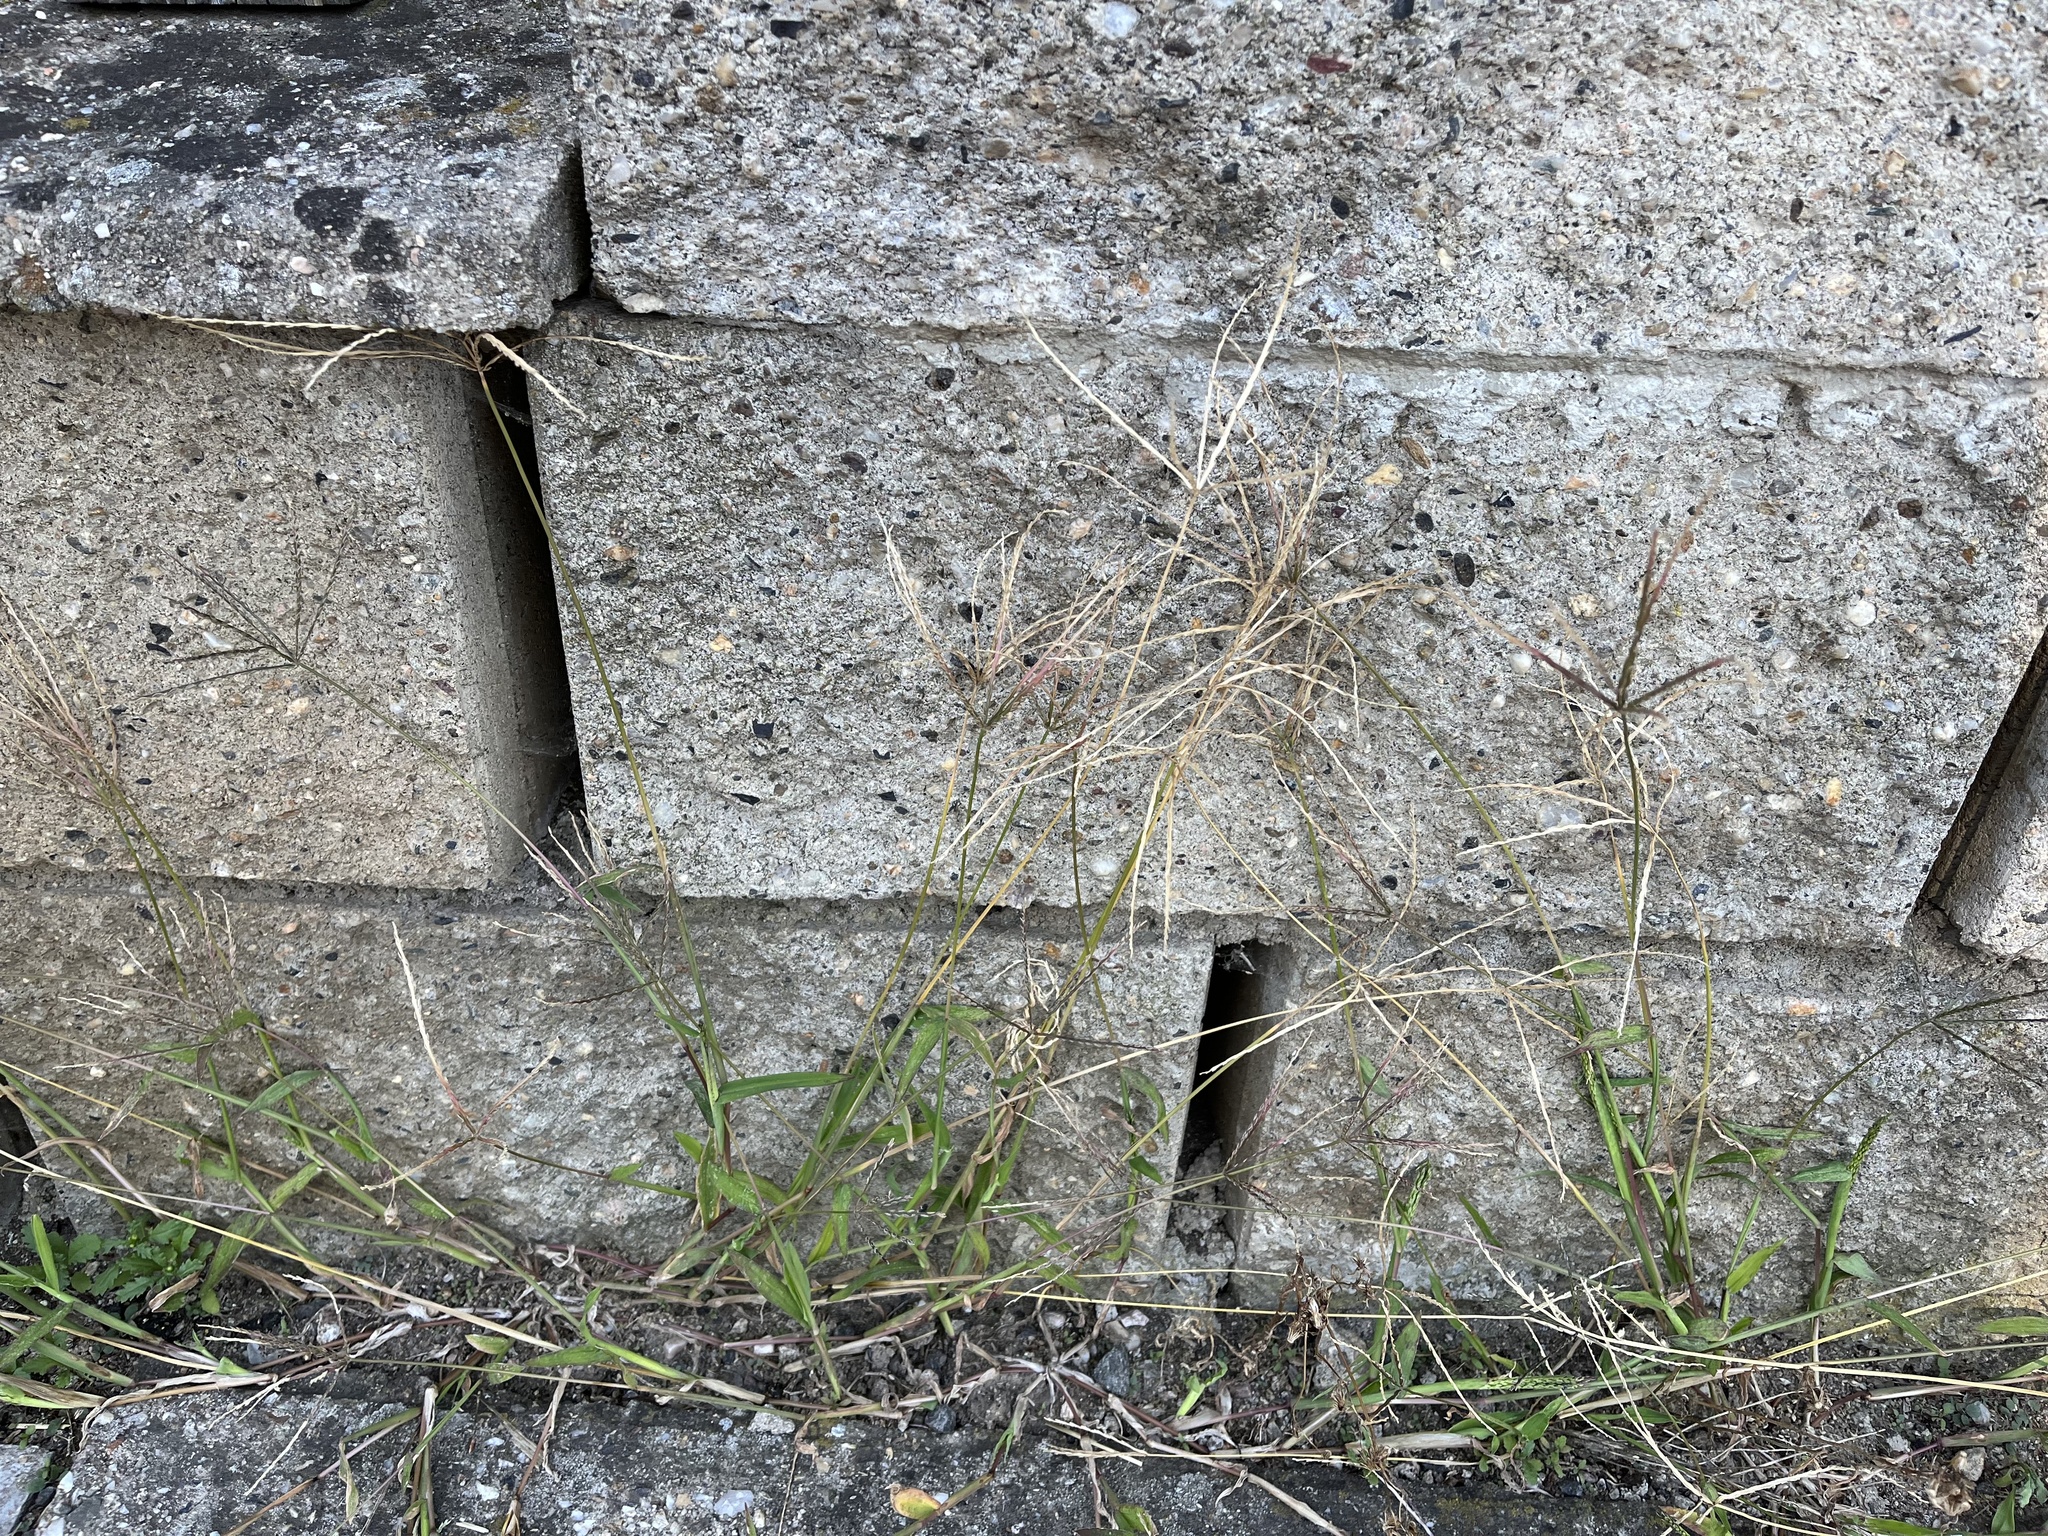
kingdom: Plantae
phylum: Tracheophyta
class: Liliopsida
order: Poales
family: Poaceae
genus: Digitaria
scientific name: Digitaria sanguinalis
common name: Hairy crabgrass
